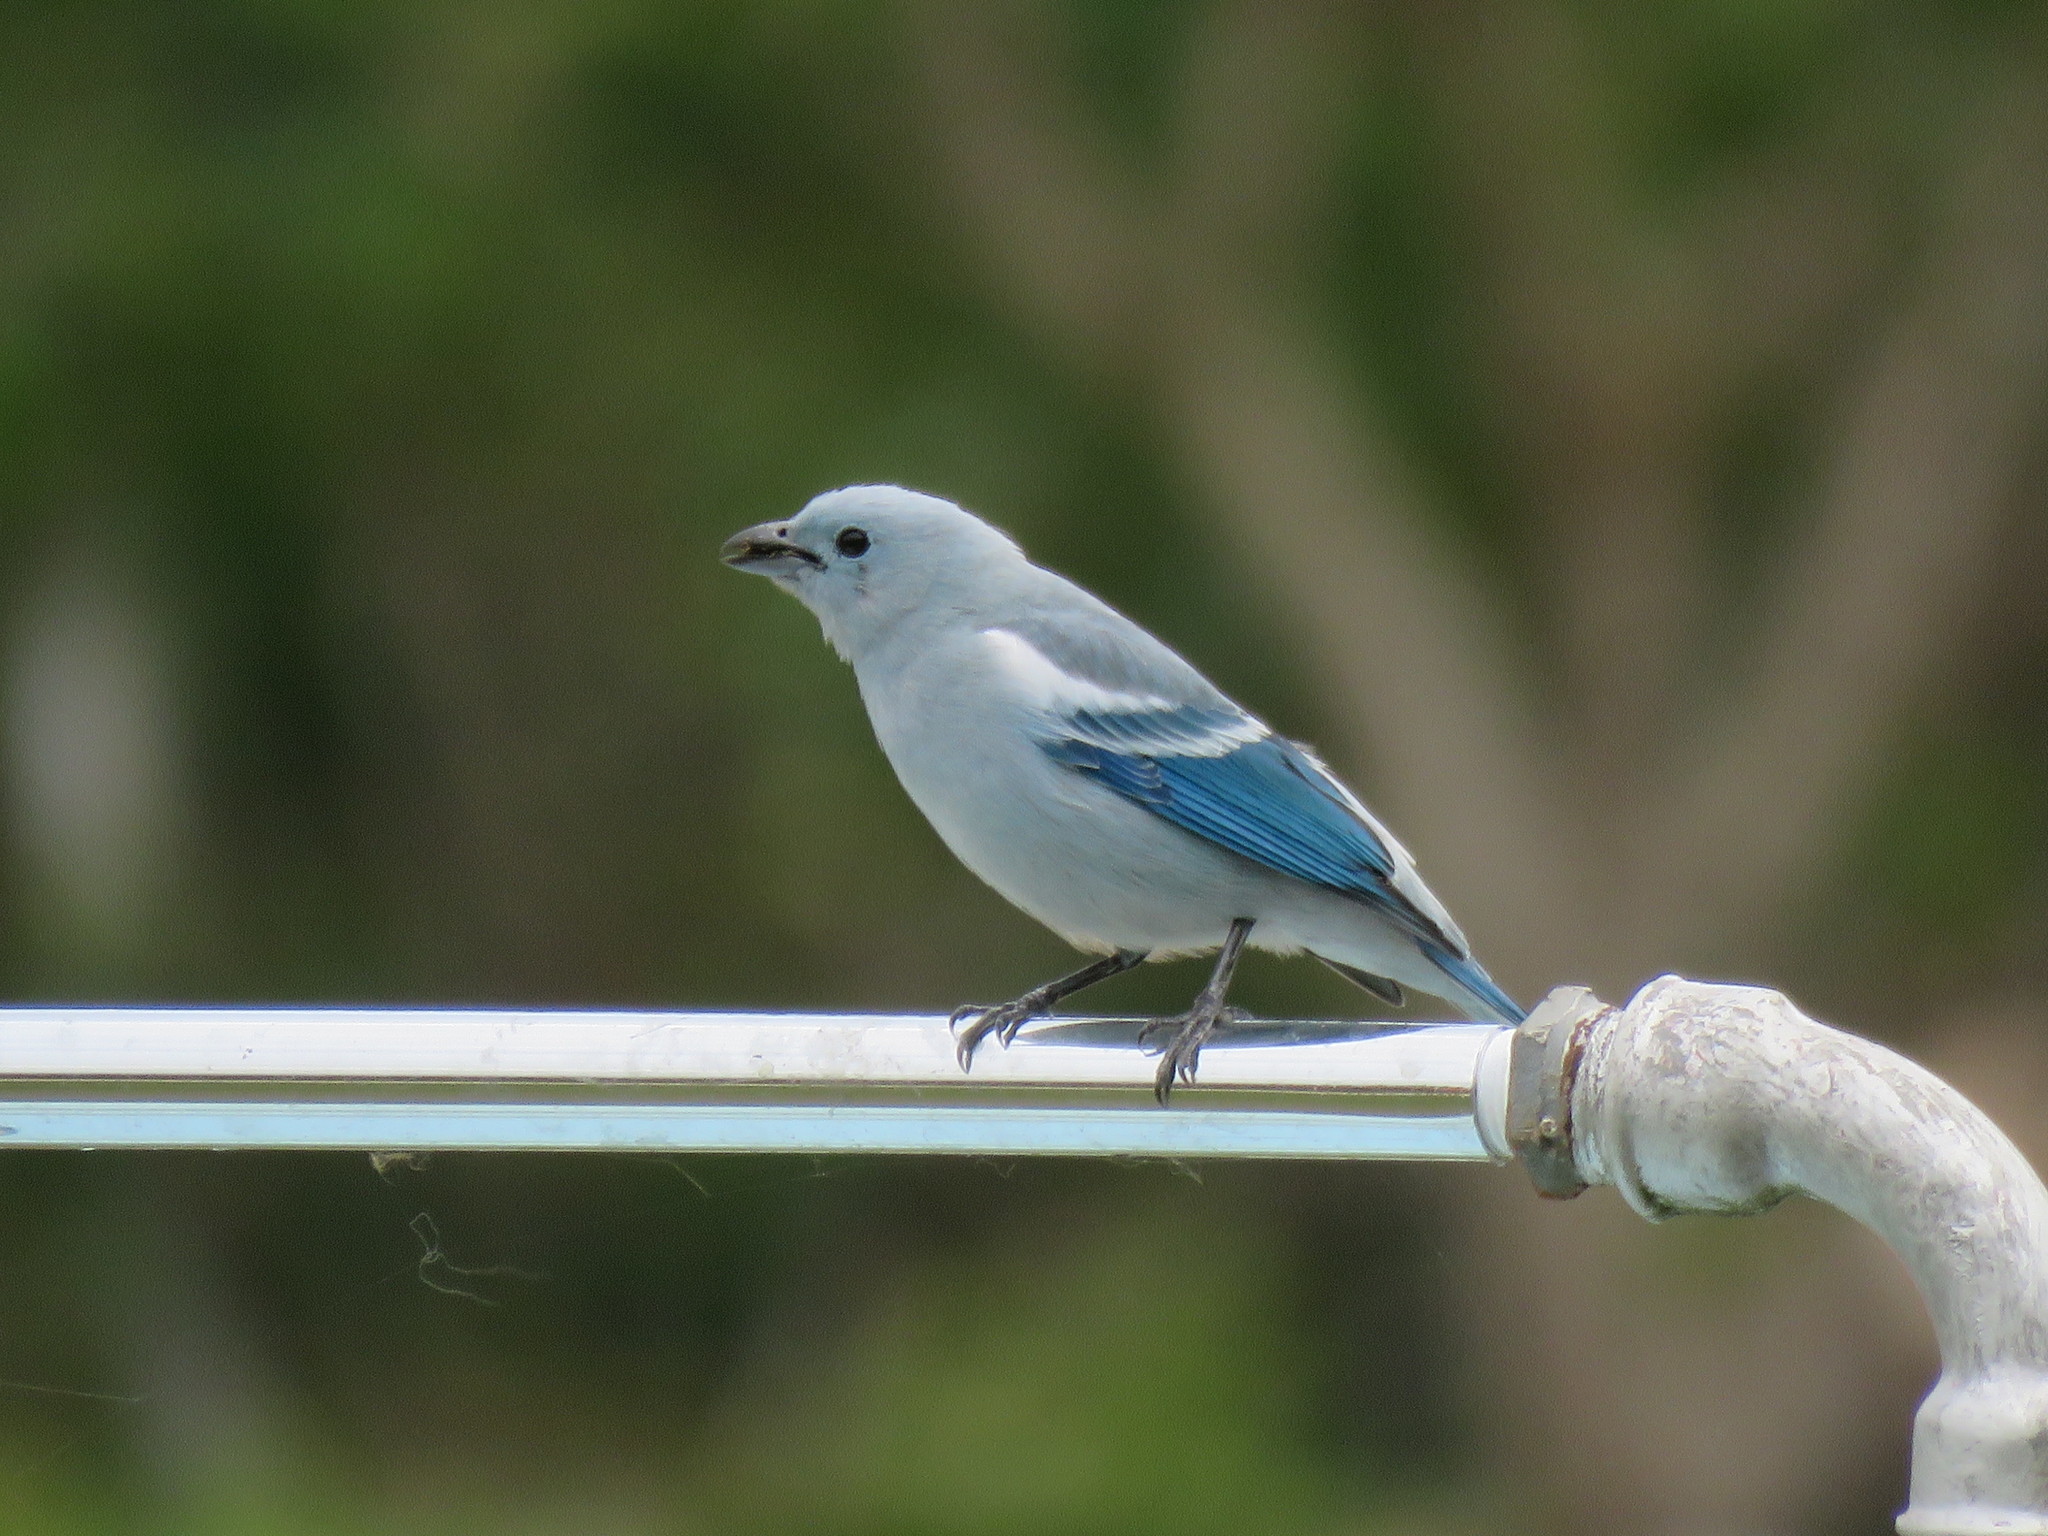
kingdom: Animalia
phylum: Chordata
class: Aves
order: Passeriformes
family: Thraupidae
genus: Thraupis
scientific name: Thraupis episcopus
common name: Blue-grey tanager
